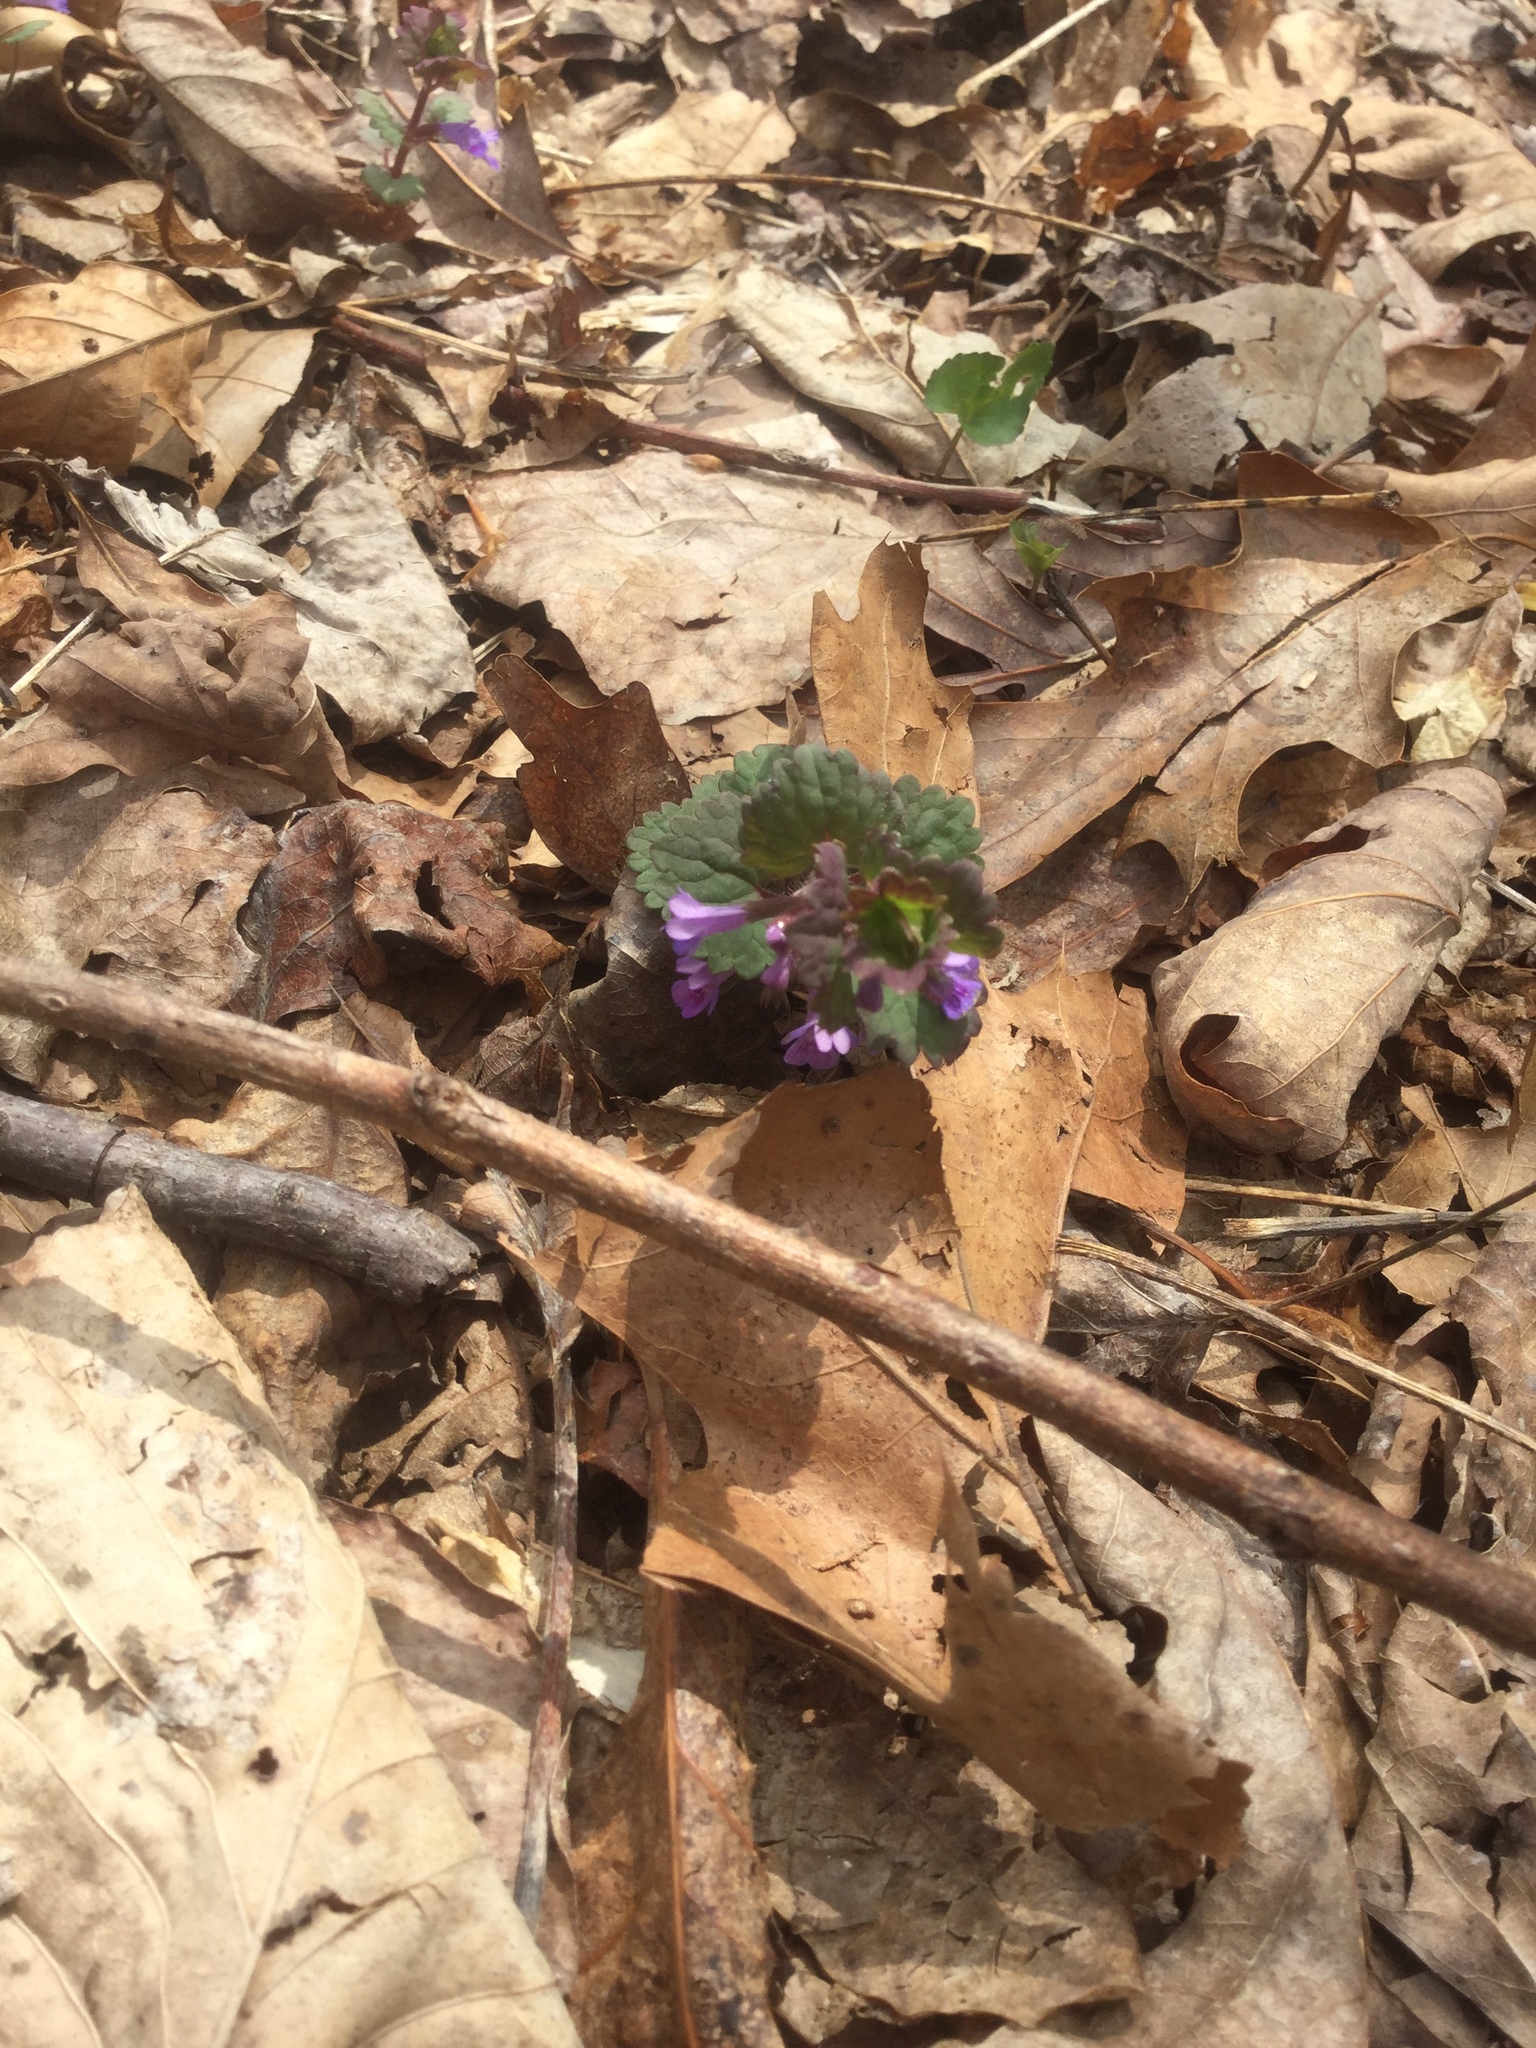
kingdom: Plantae
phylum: Tracheophyta
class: Magnoliopsida
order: Lamiales
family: Lamiaceae
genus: Lamium
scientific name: Lamium amplexicaule
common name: Henbit dead-nettle
